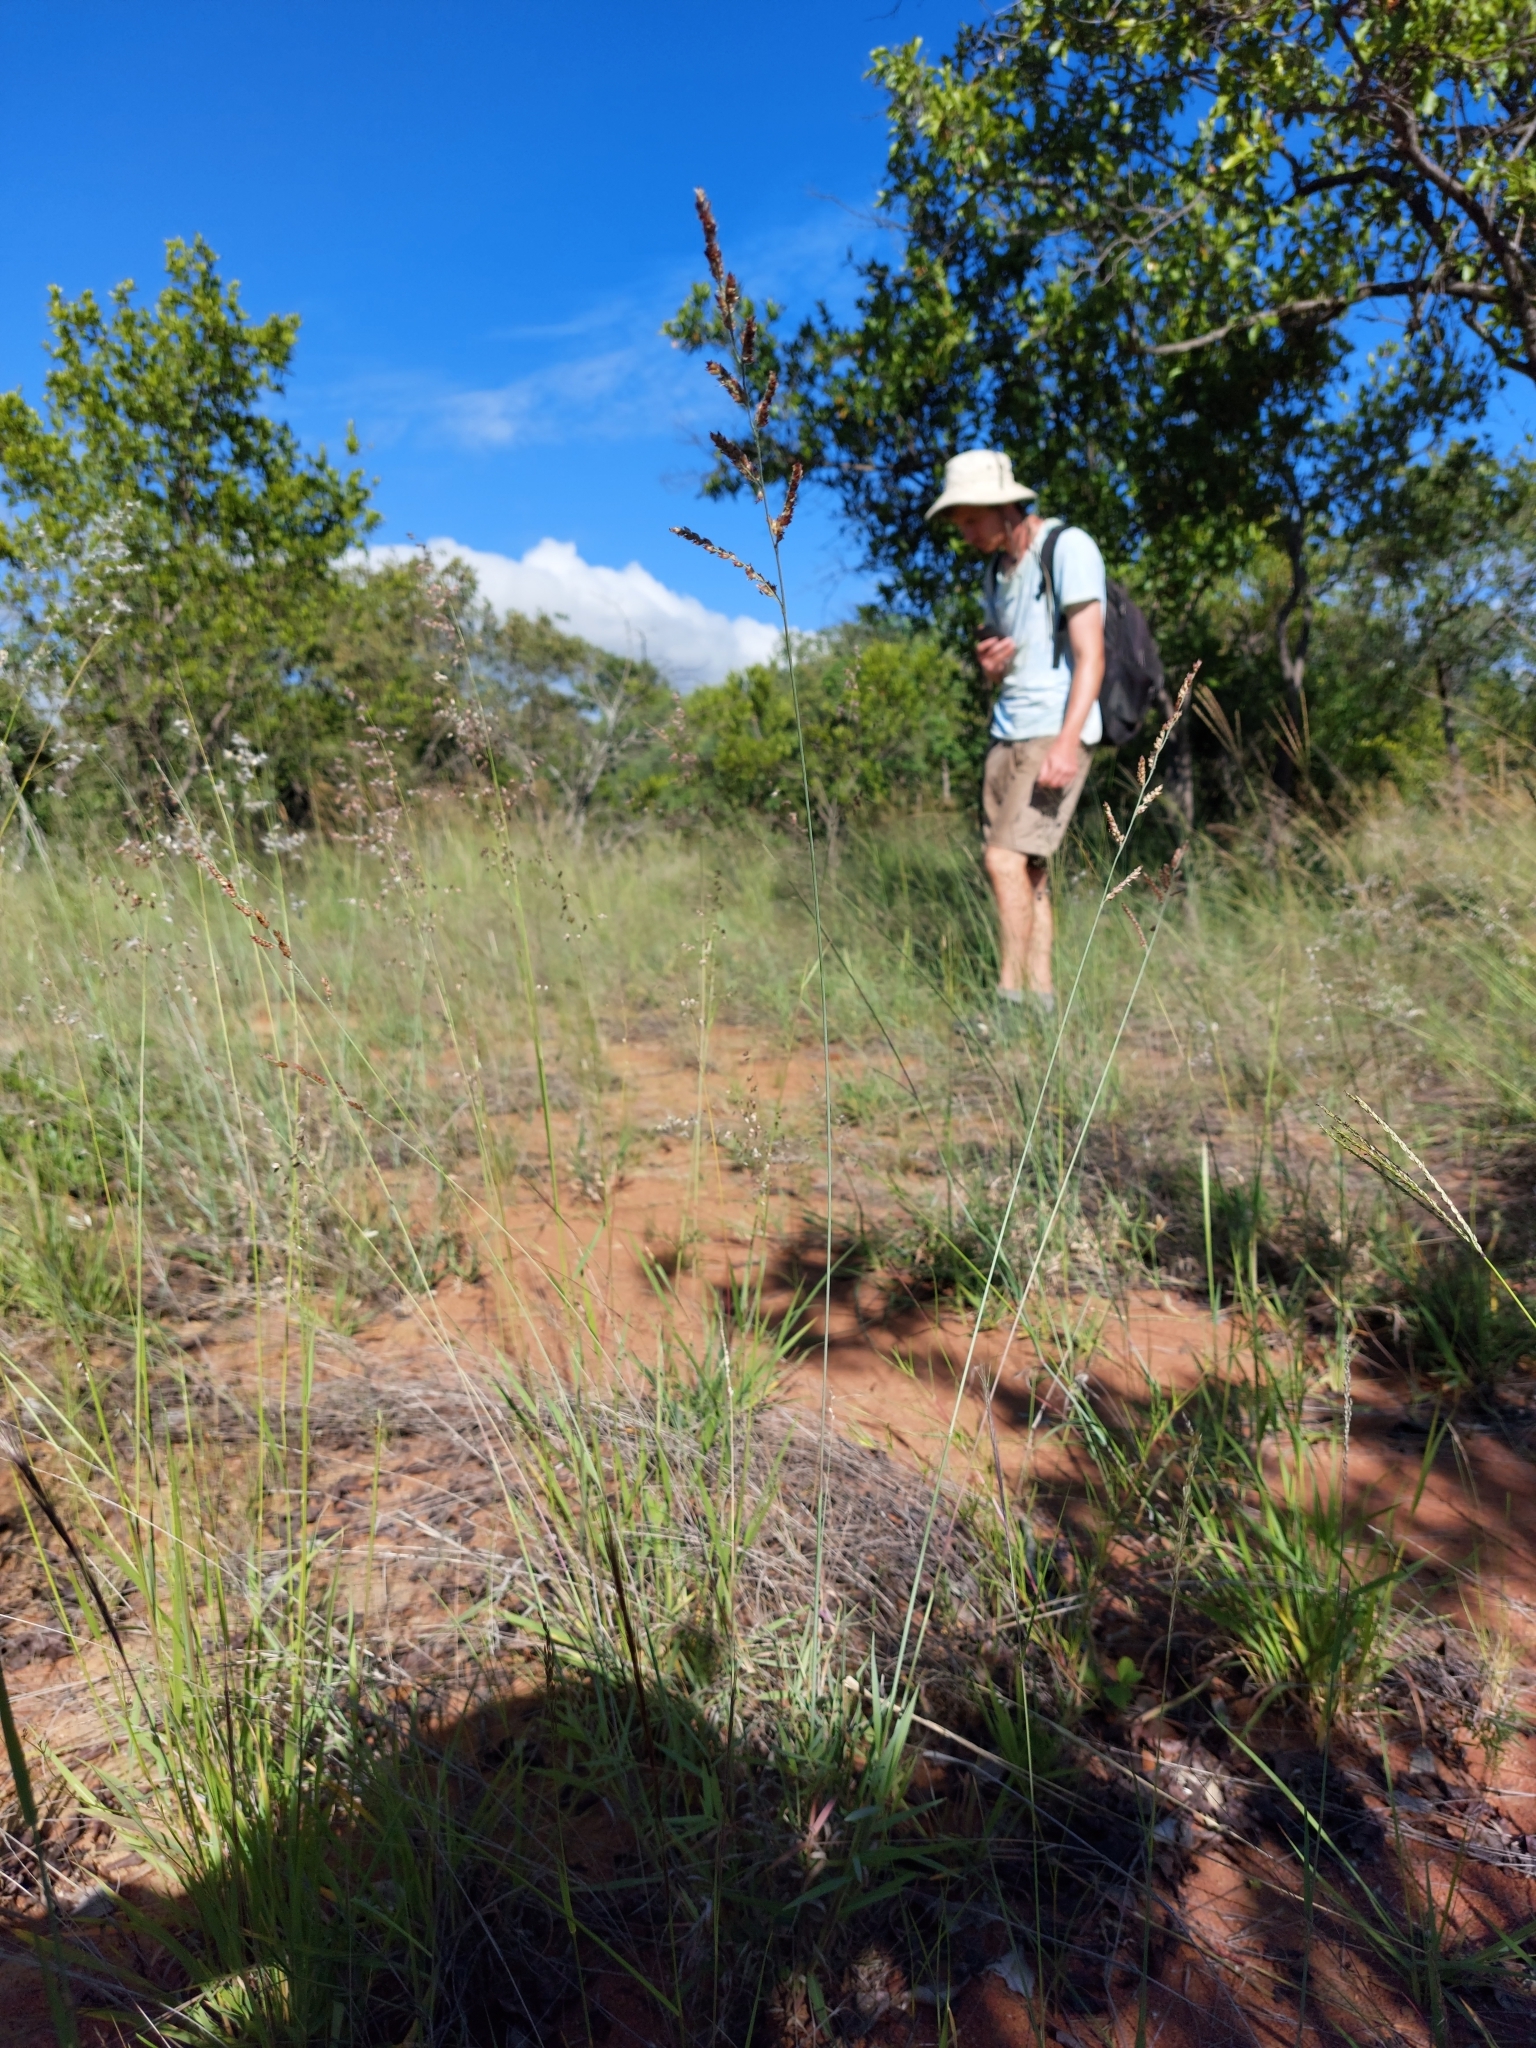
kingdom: Plantae
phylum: Tracheophyta
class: Liliopsida
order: Poales
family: Poaceae
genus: Urochloa
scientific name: Urochloa serrata
